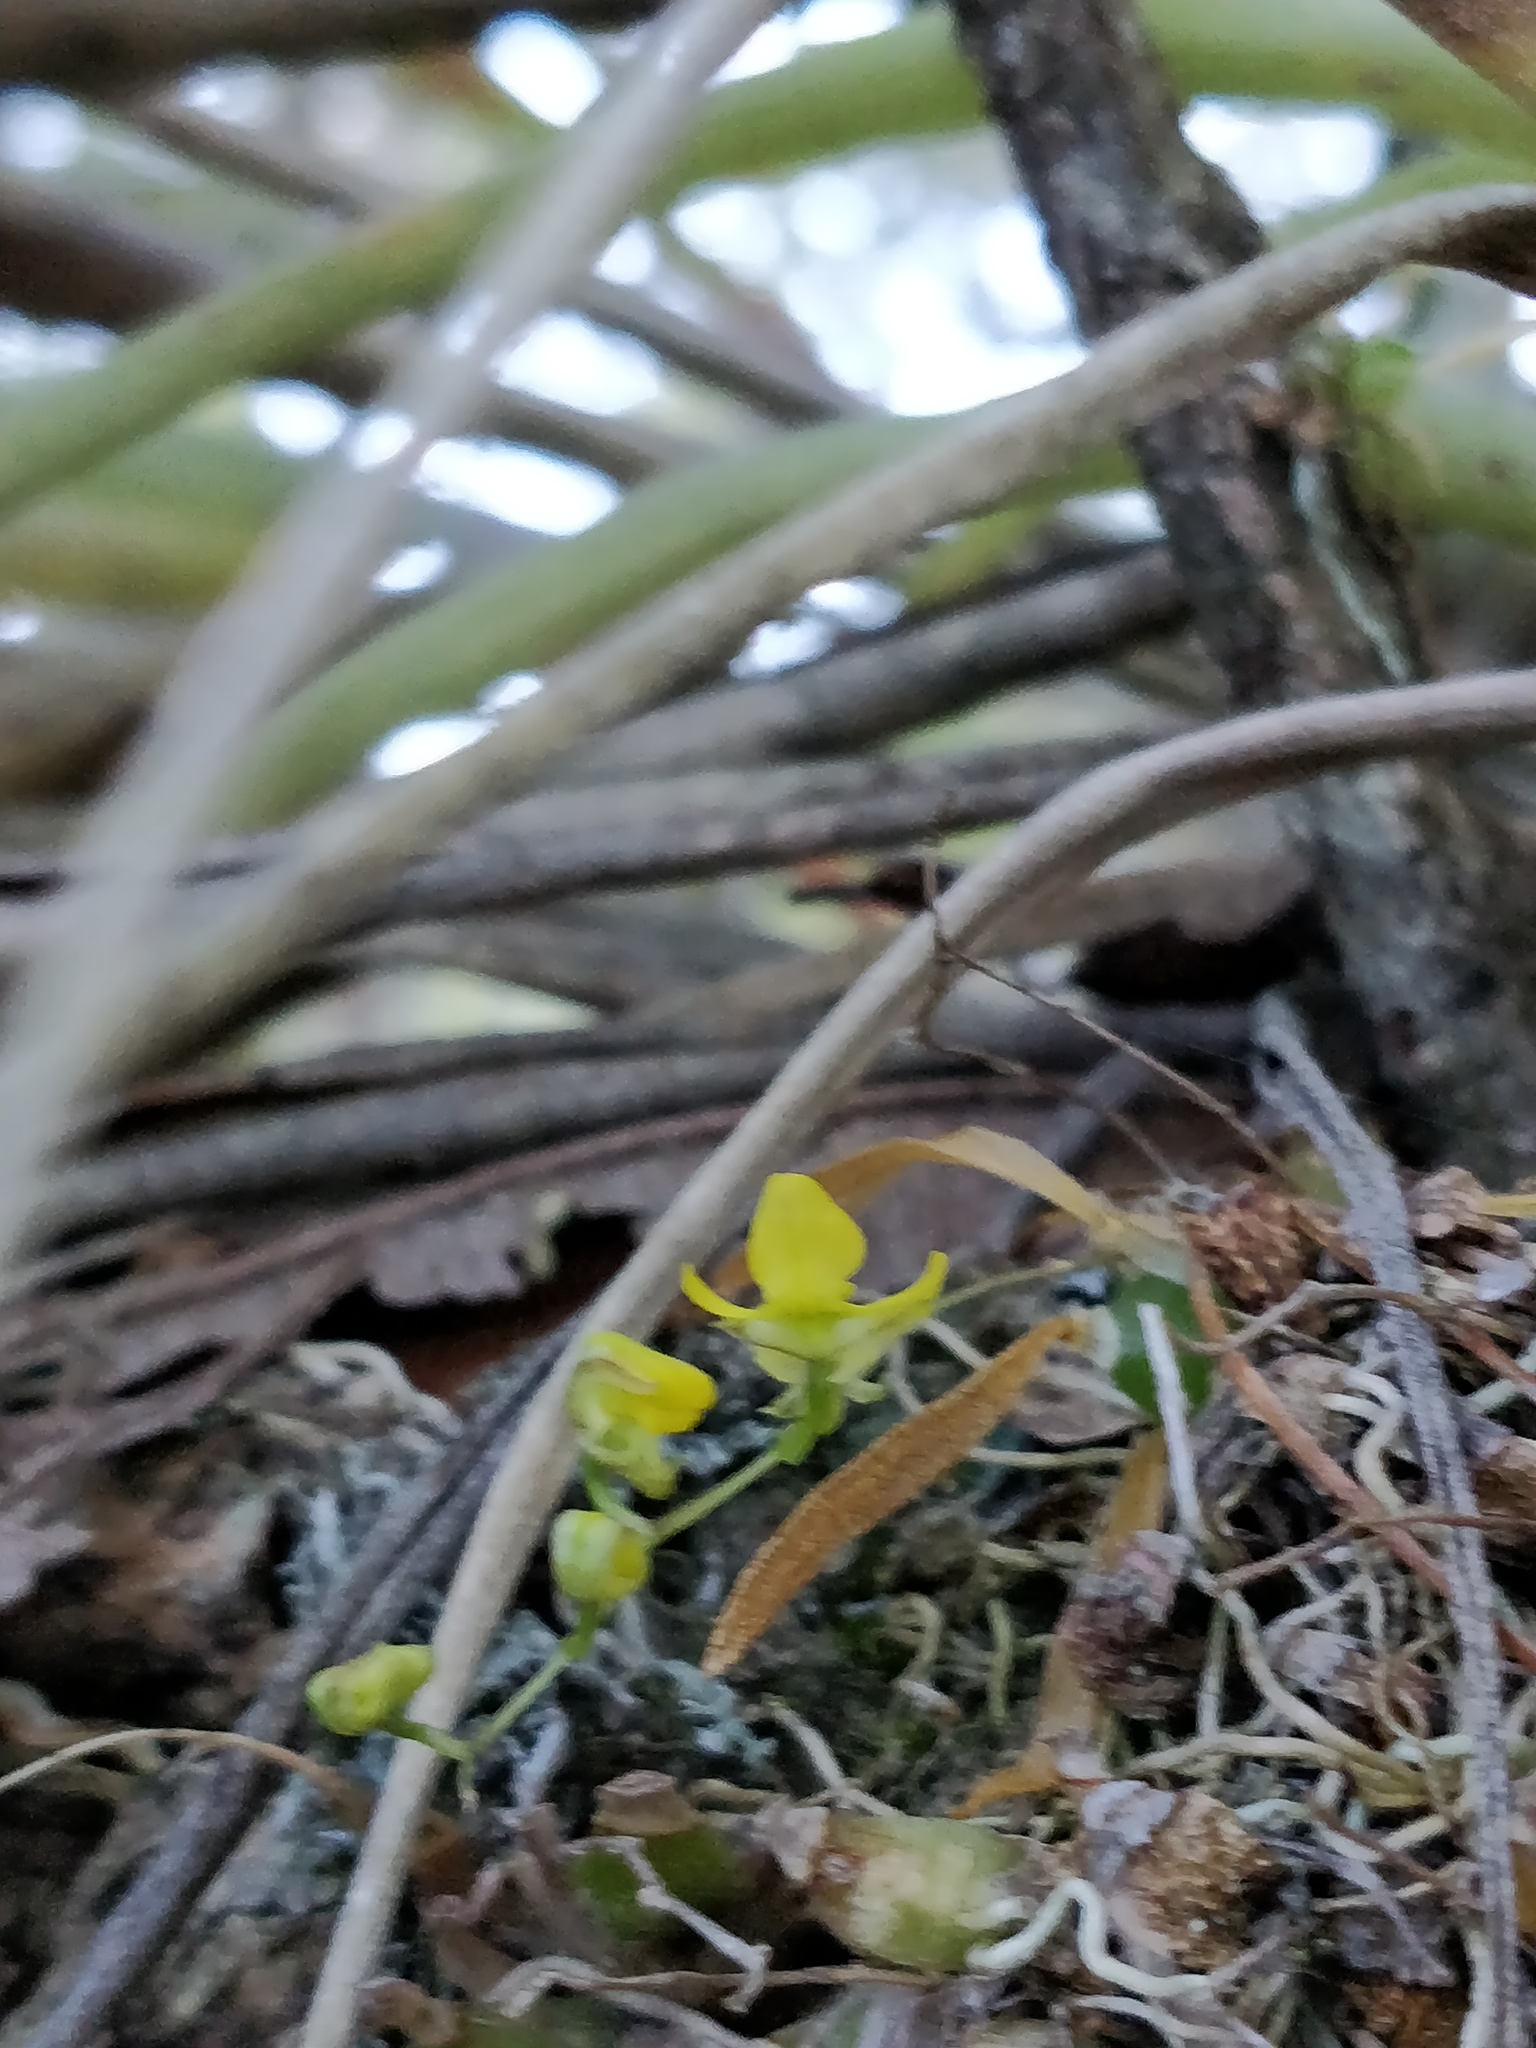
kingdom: Plantae
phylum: Tracheophyta
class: Liliopsida
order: Asparagales
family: Orchidaceae
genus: Erycina
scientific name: Erycina hyalinobulbon
